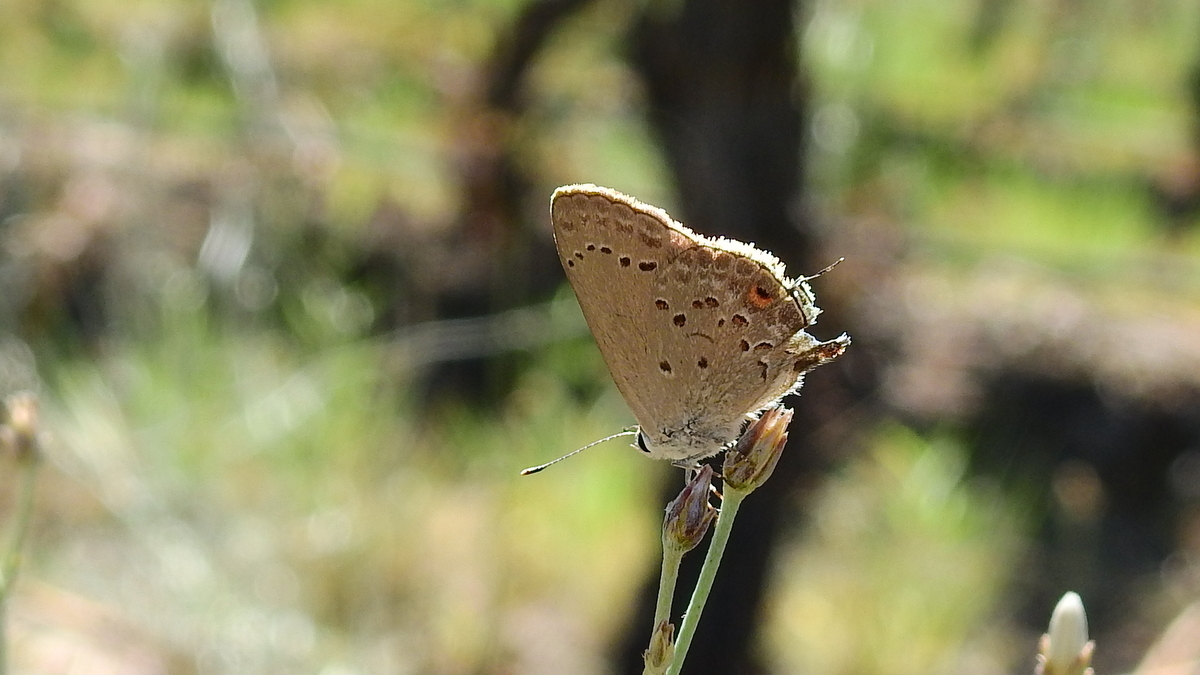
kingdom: Animalia
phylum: Arthropoda
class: Insecta
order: Lepidoptera
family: Lycaenidae
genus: Strymon
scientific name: Strymon eurytulus
